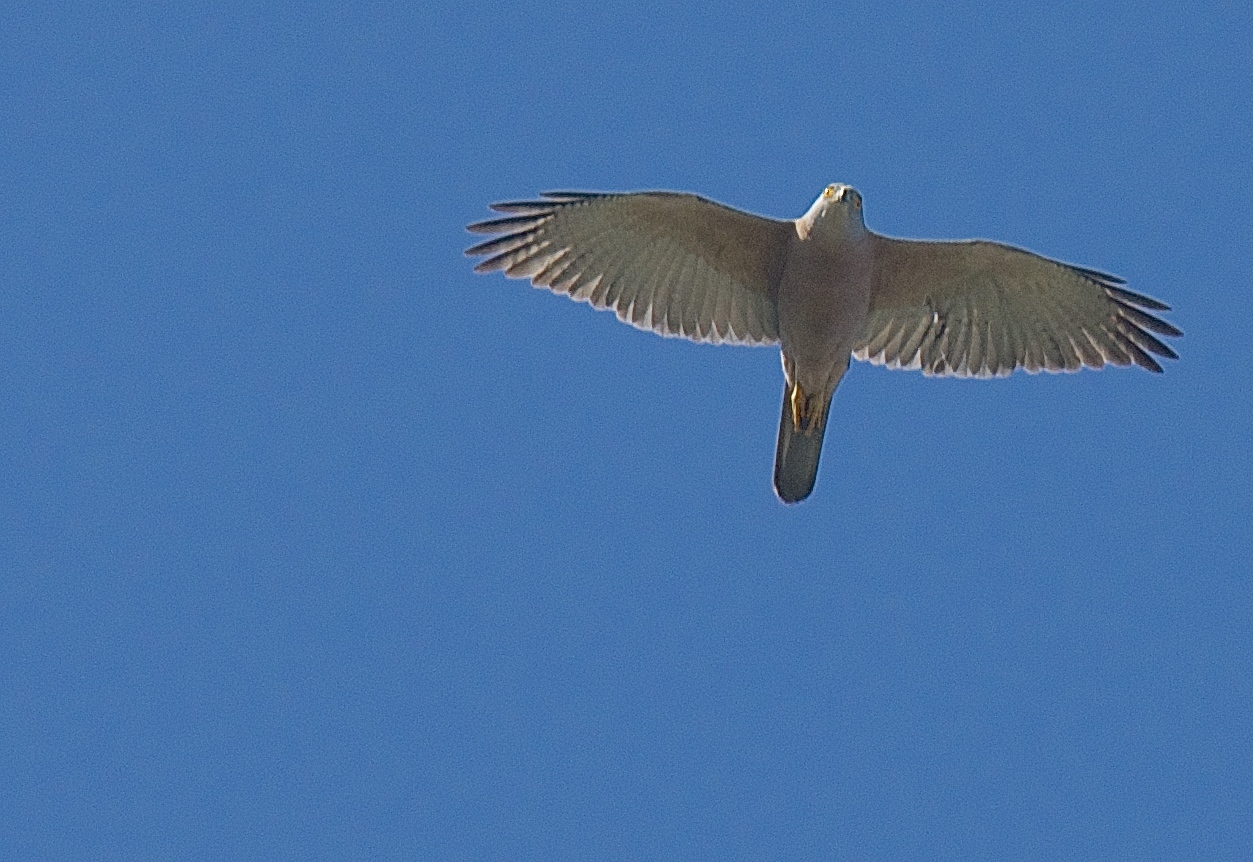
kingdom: Animalia
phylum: Chordata
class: Aves
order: Accipitriformes
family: Accipitridae
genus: Accipiter
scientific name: Accipiter rufitorques
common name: Fiji goshawk
